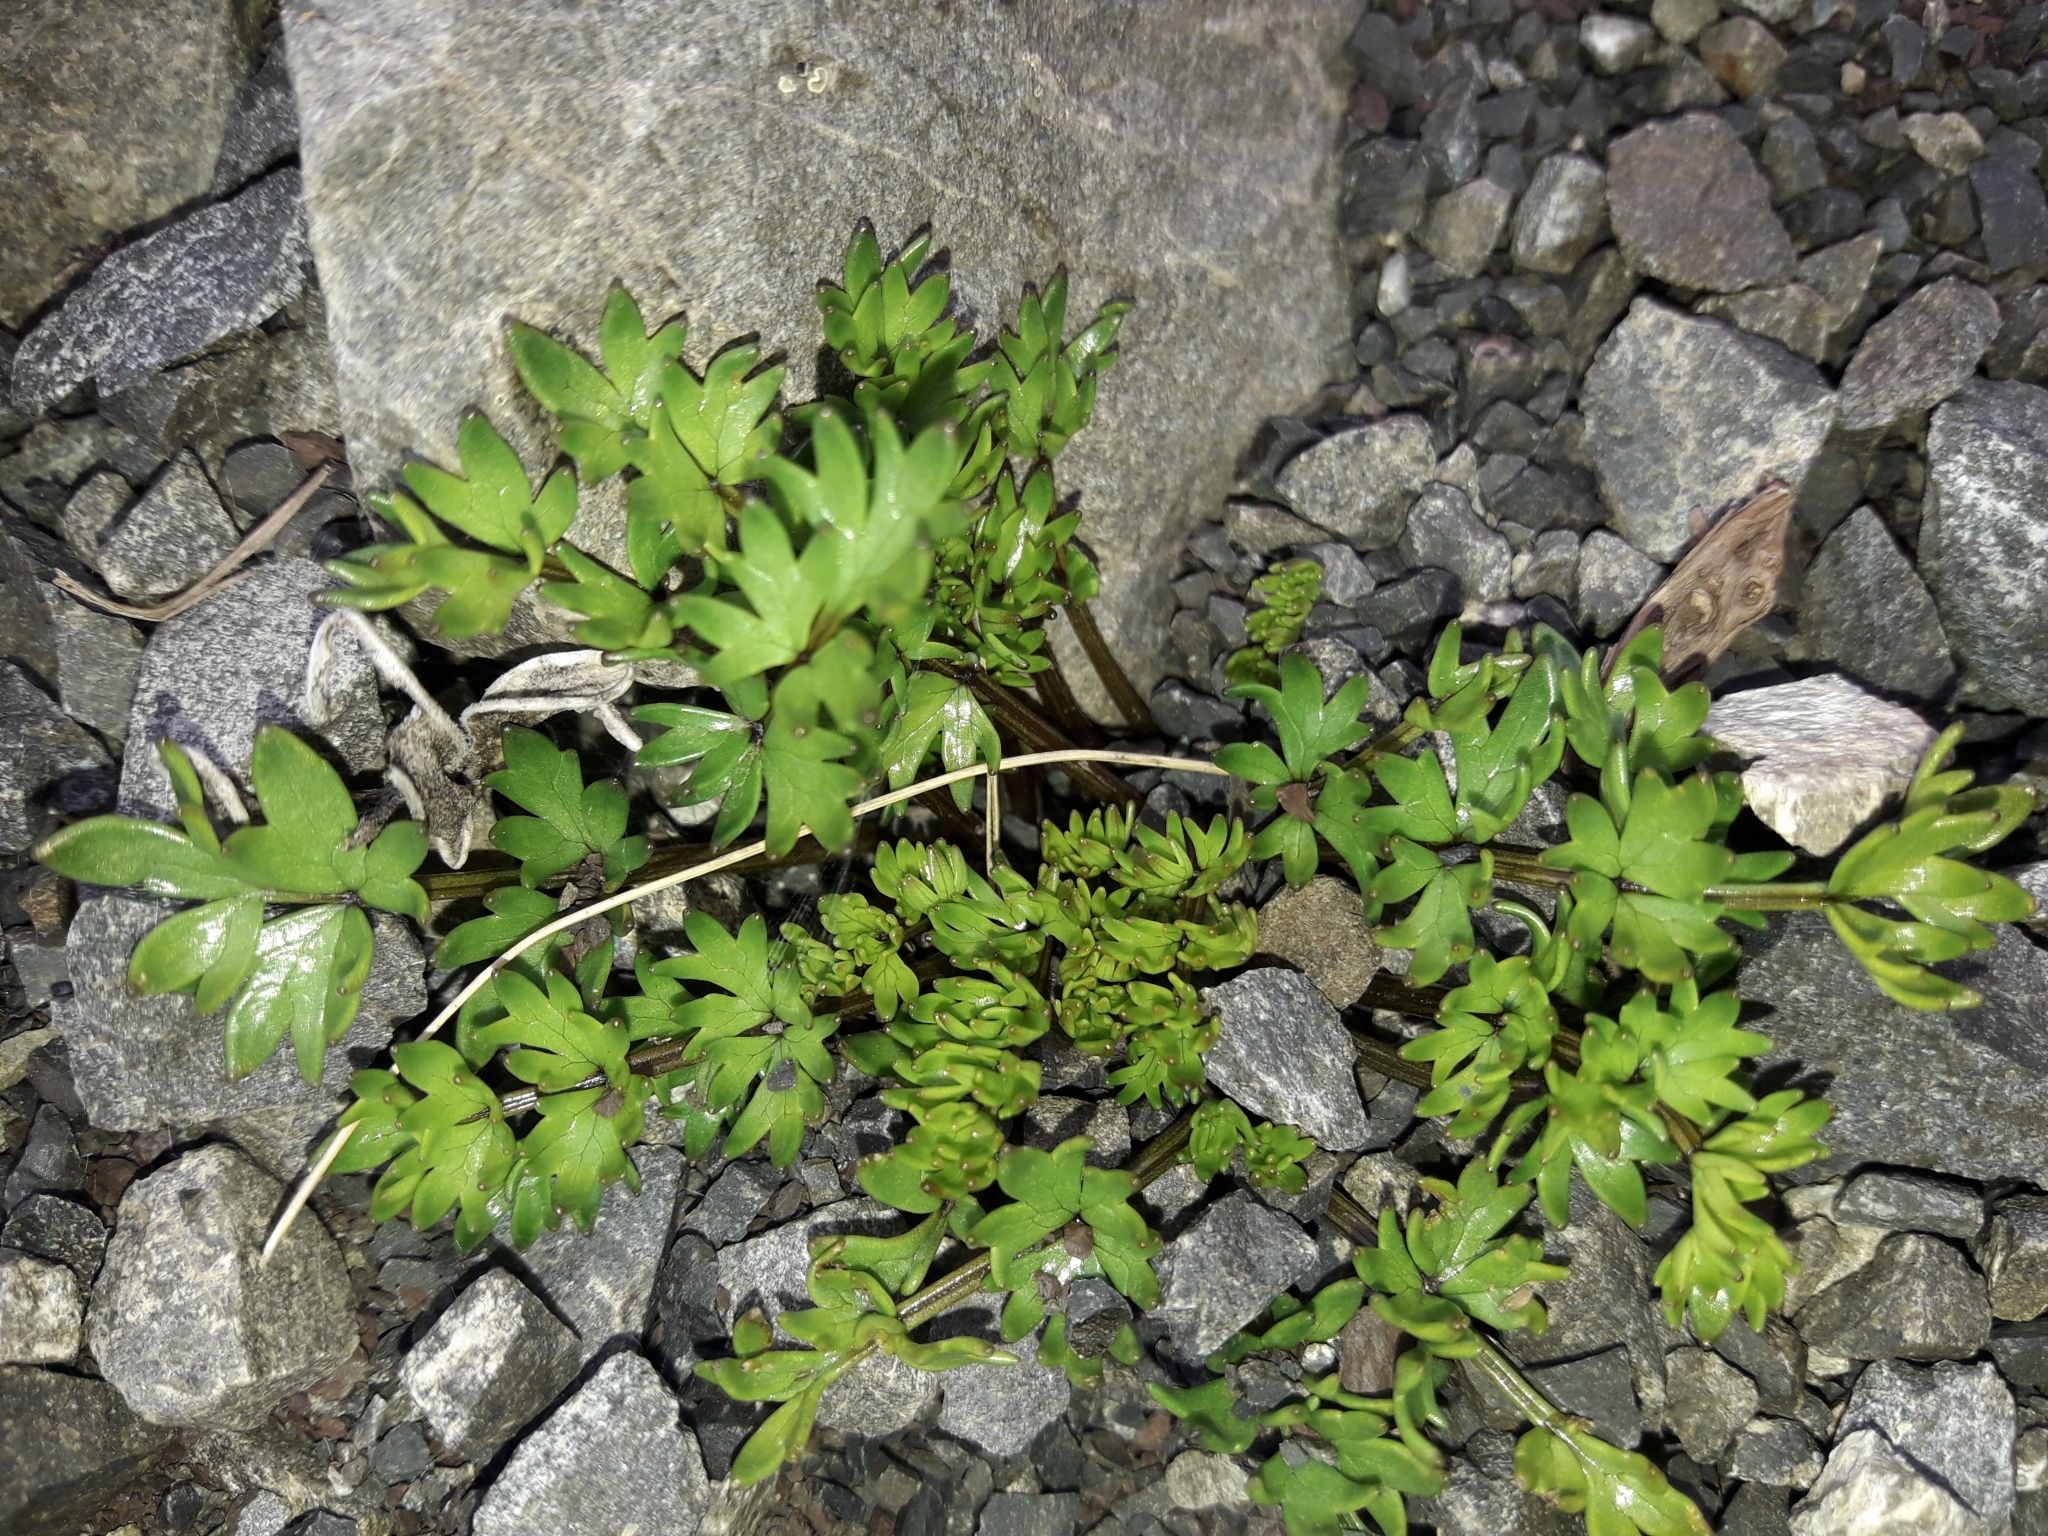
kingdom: Plantae
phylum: Tracheophyta
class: Magnoliopsida
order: Apiales
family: Apiaceae
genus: Gingidia
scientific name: Gingidia decipiens
